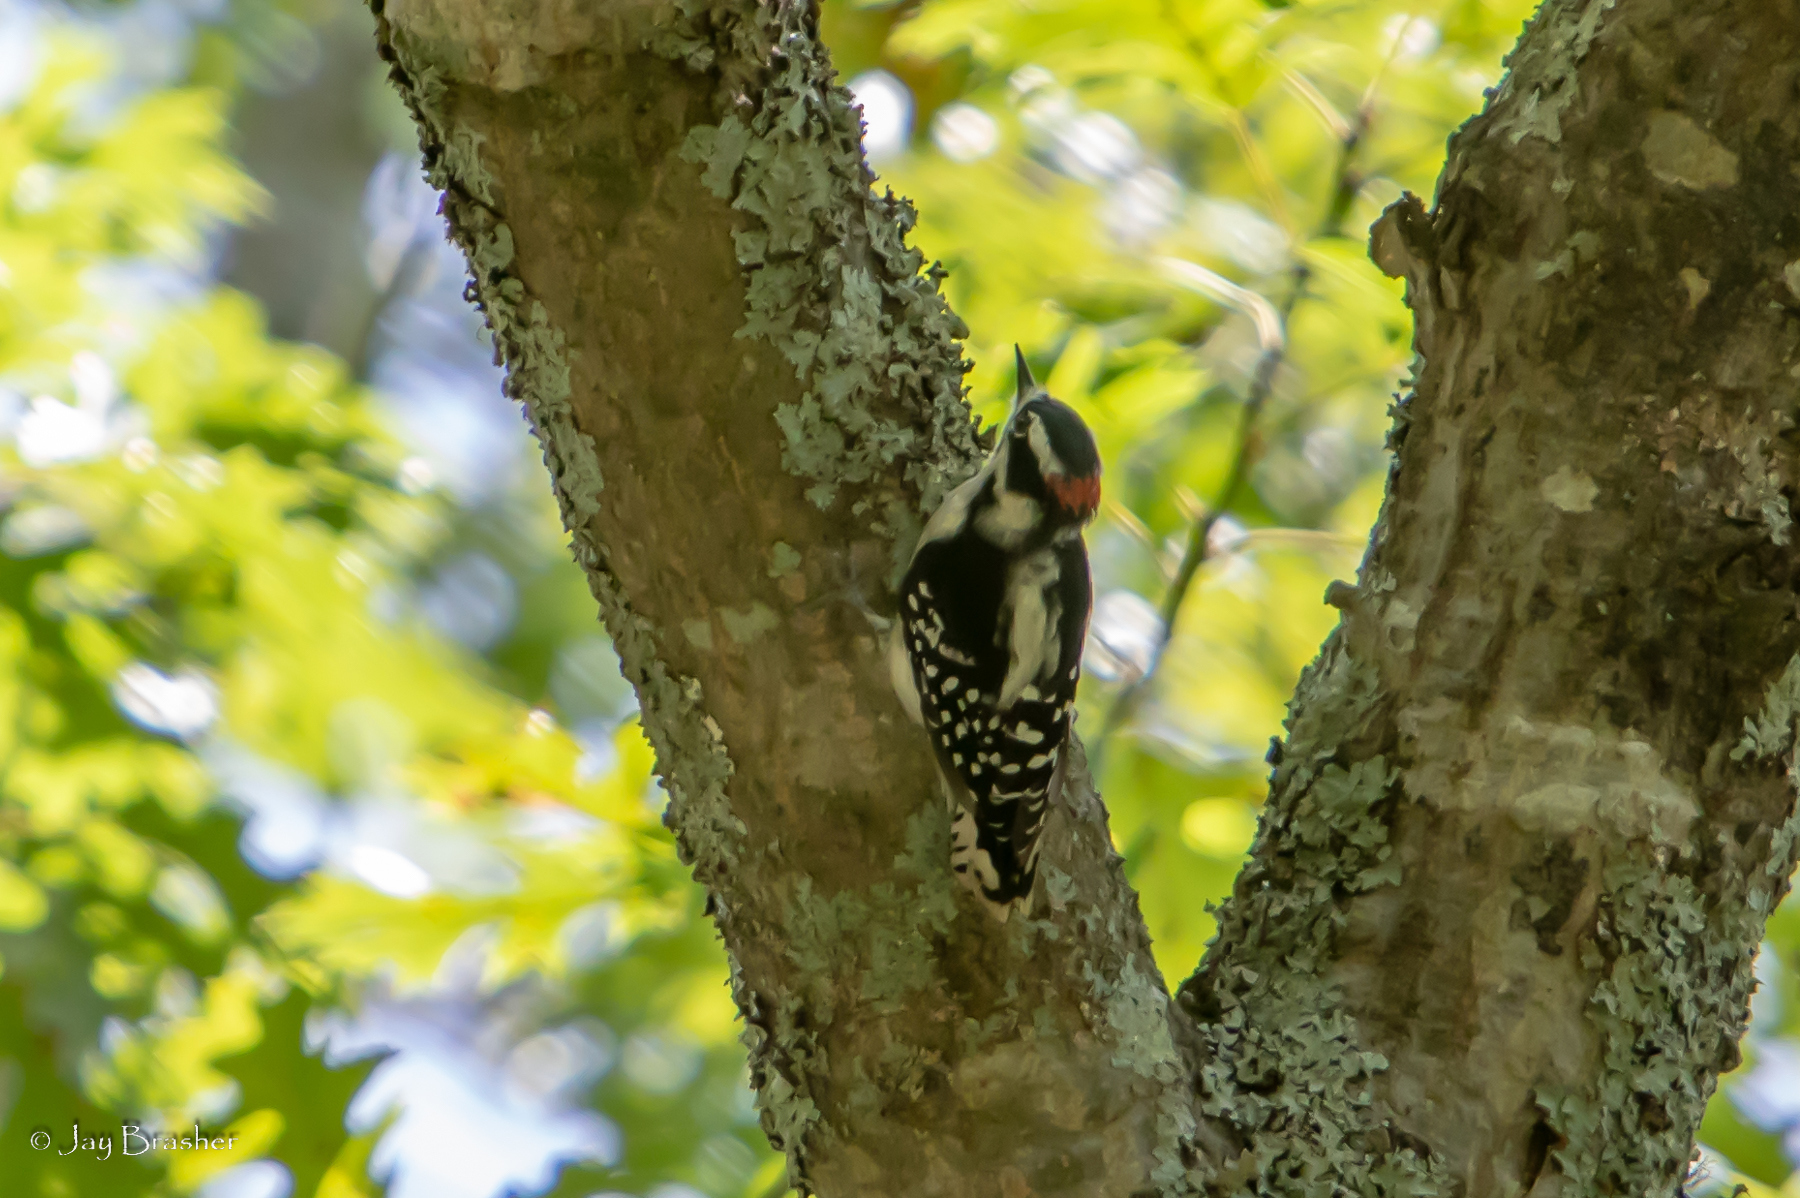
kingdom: Animalia
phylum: Chordata
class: Aves
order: Piciformes
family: Picidae
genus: Dryobates
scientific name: Dryobates pubescens
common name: Downy woodpecker
